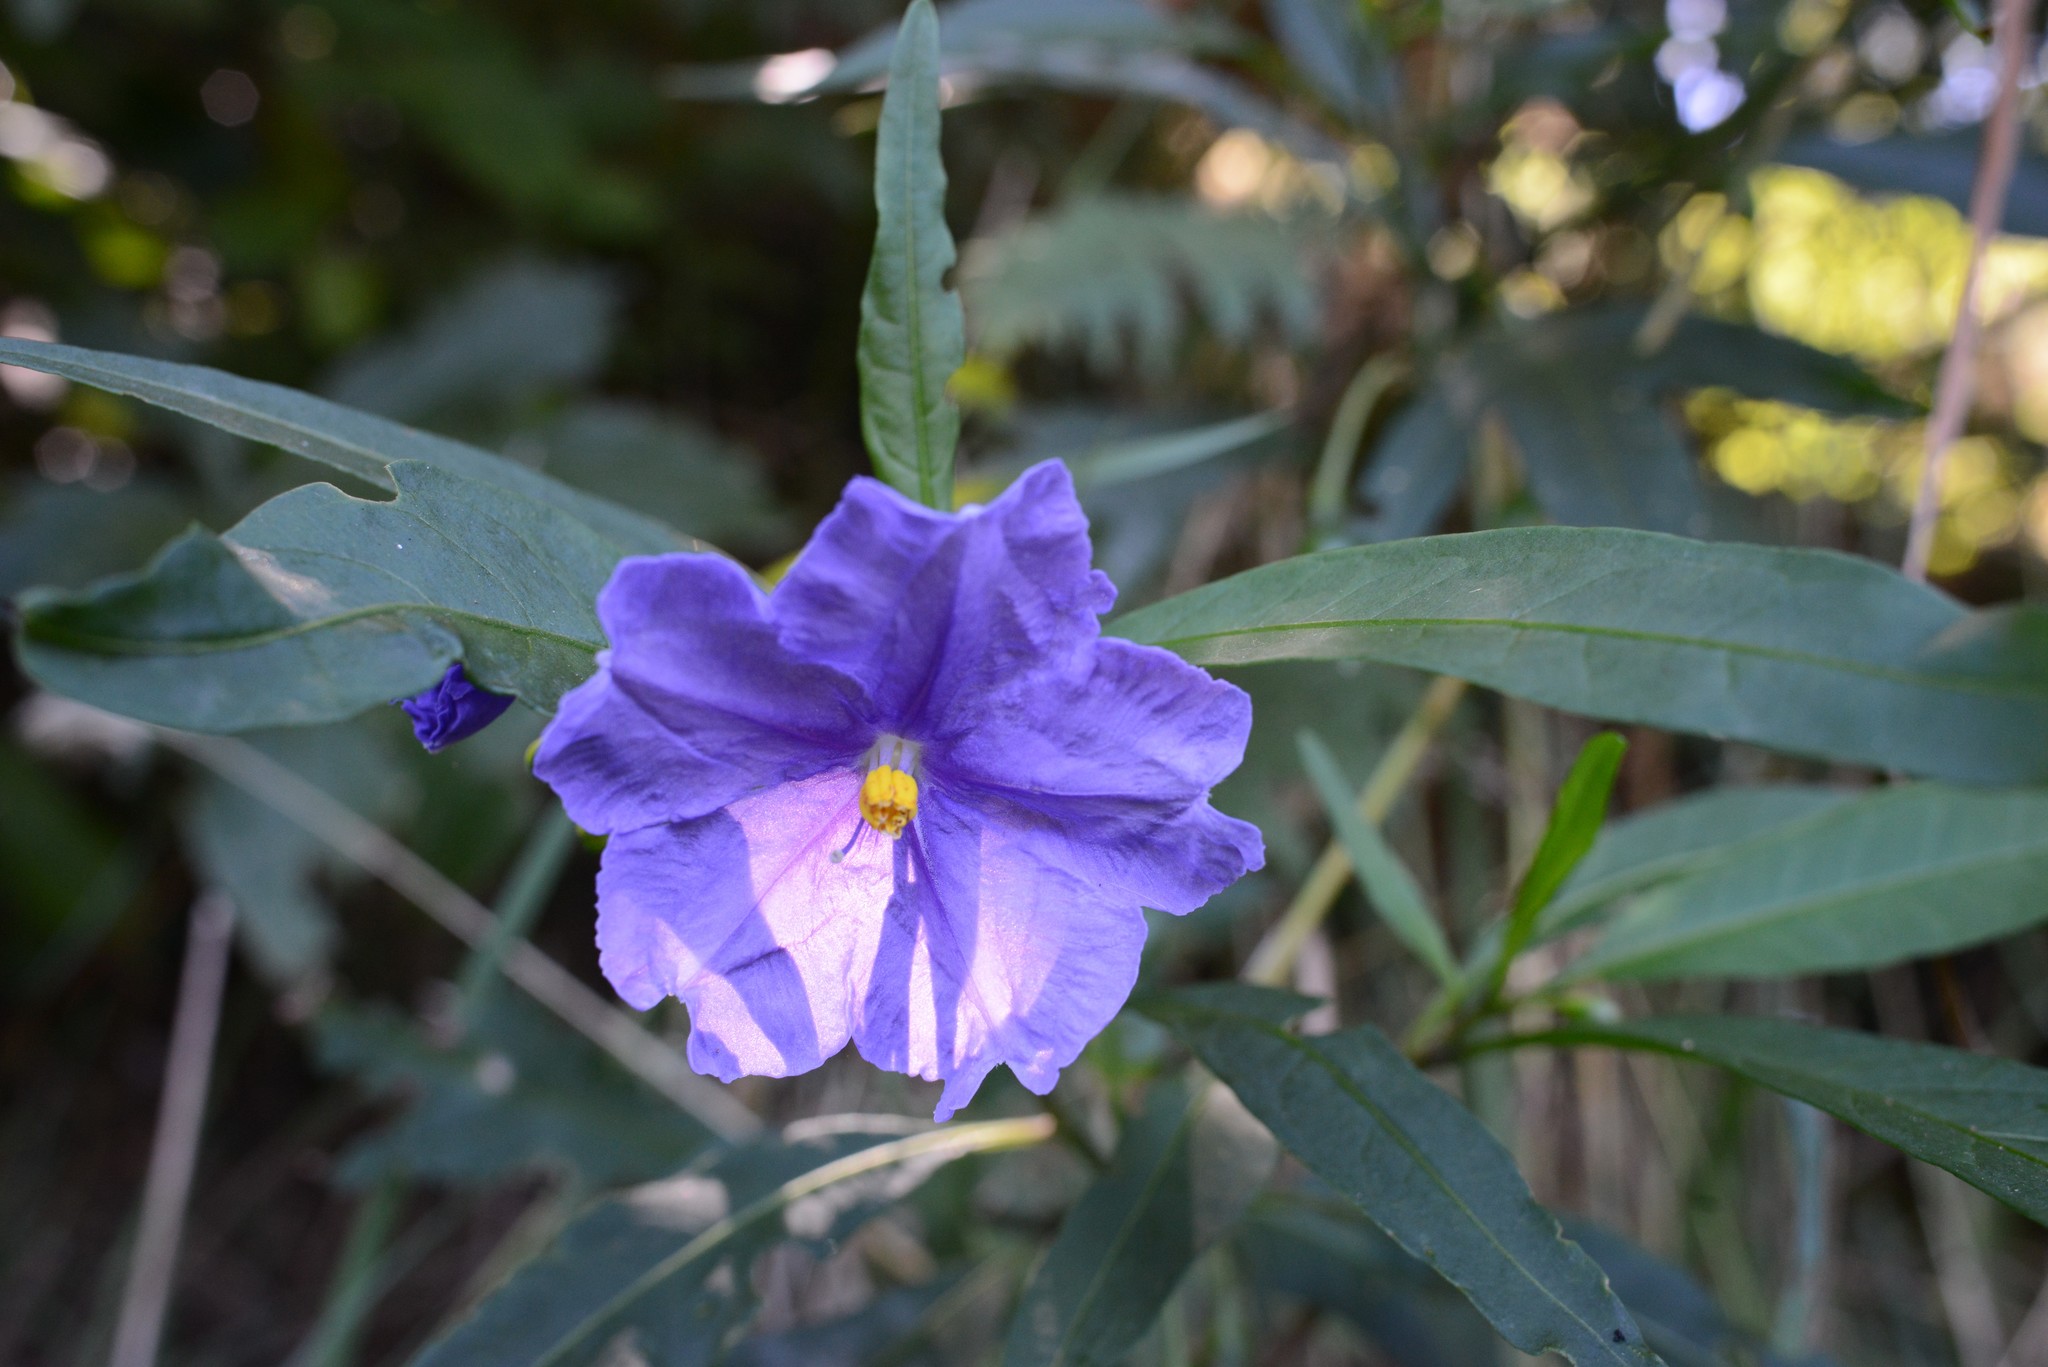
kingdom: Plantae
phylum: Tracheophyta
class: Magnoliopsida
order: Solanales
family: Solanaceae
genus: Solanum
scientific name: Solanum laciniatum
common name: Kangaroo-apple
